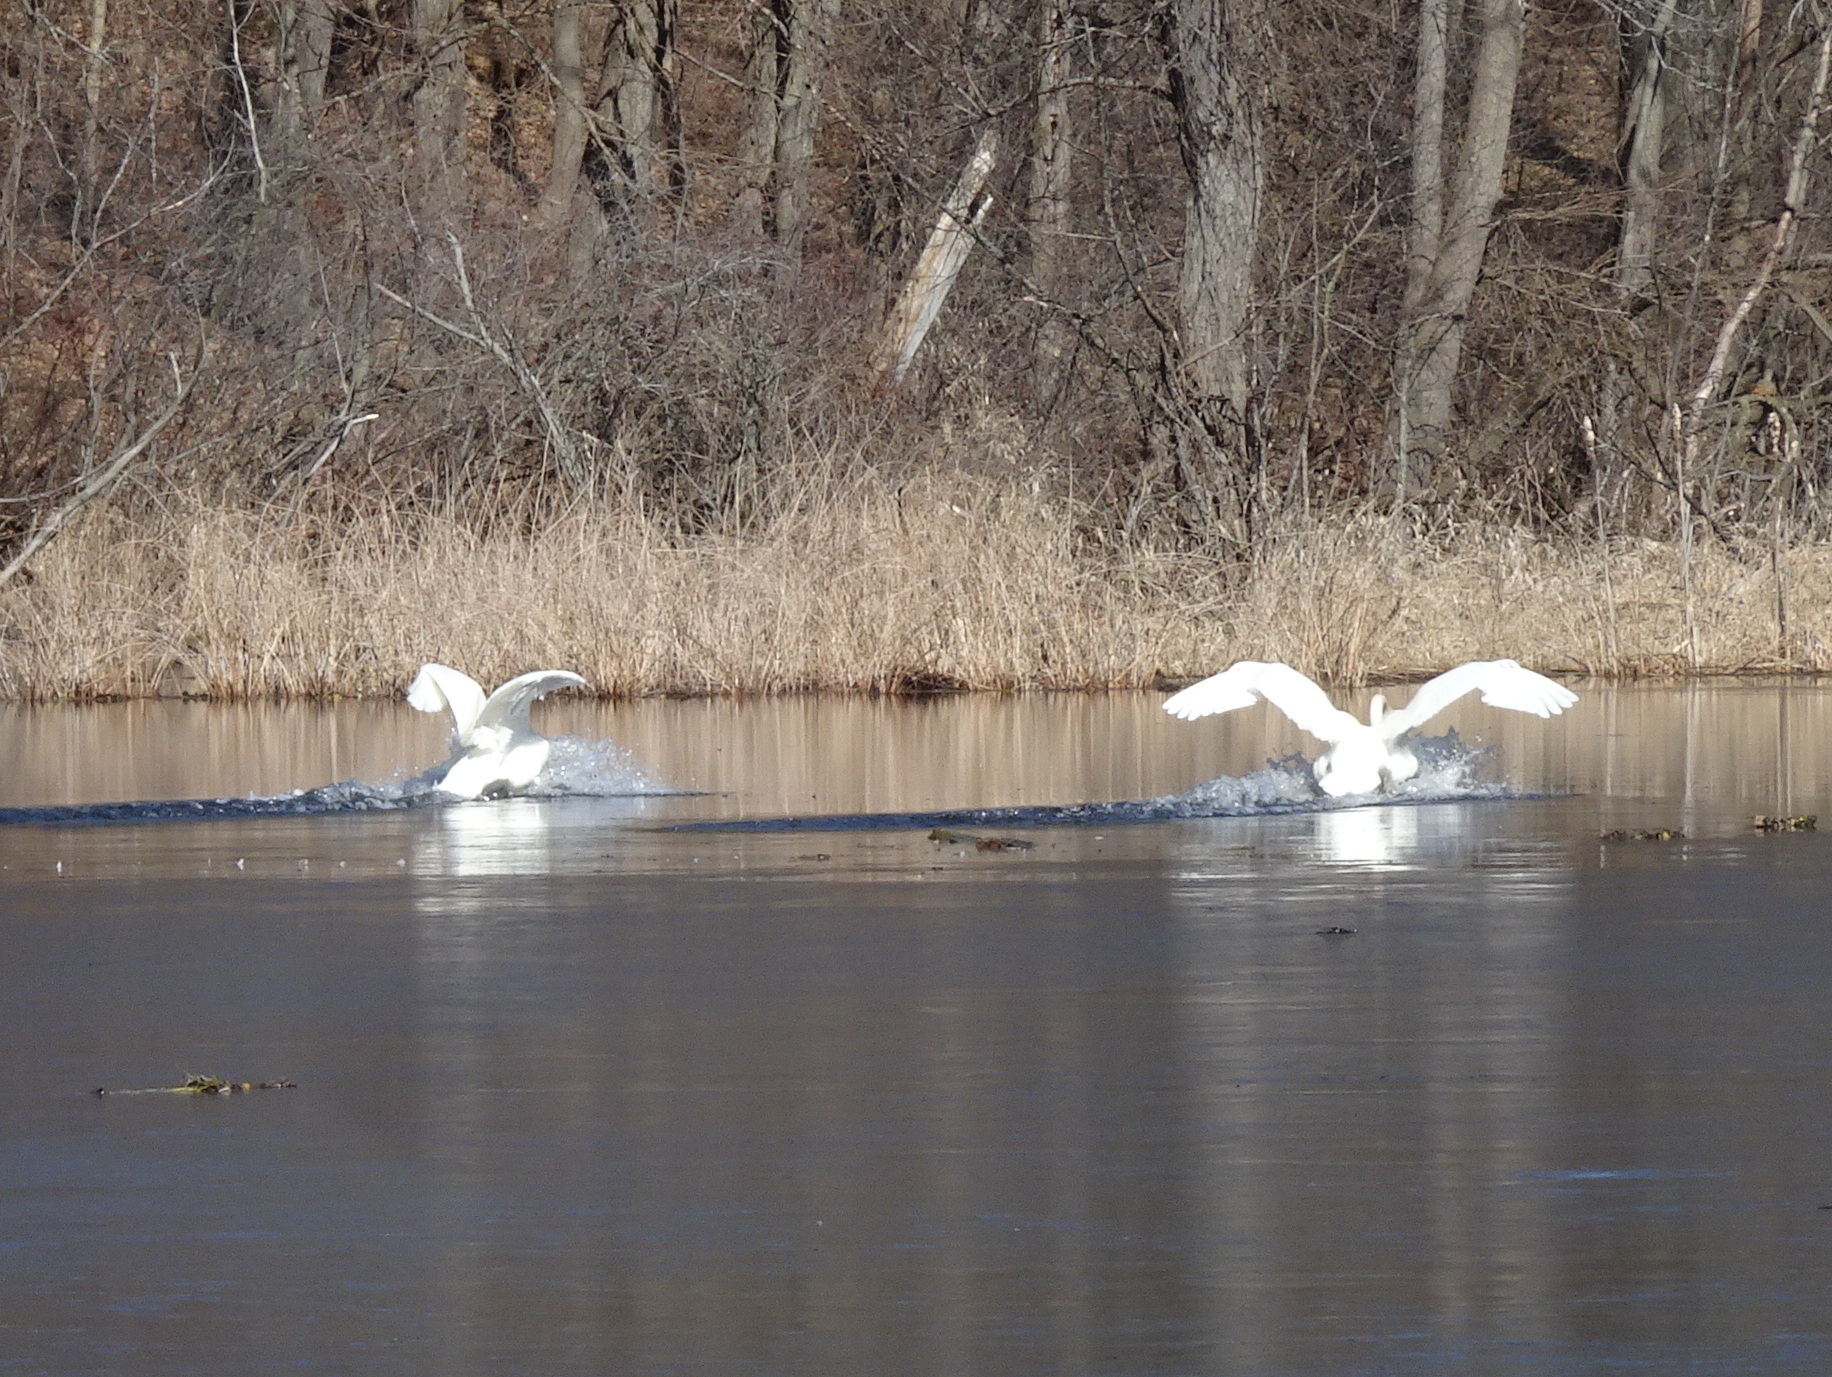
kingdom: Animalia
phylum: Chordata
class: Aves
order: Anseriformes
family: Anatidae
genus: Cygnus
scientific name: Cygnus buccinator
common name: Trumpeter swan
